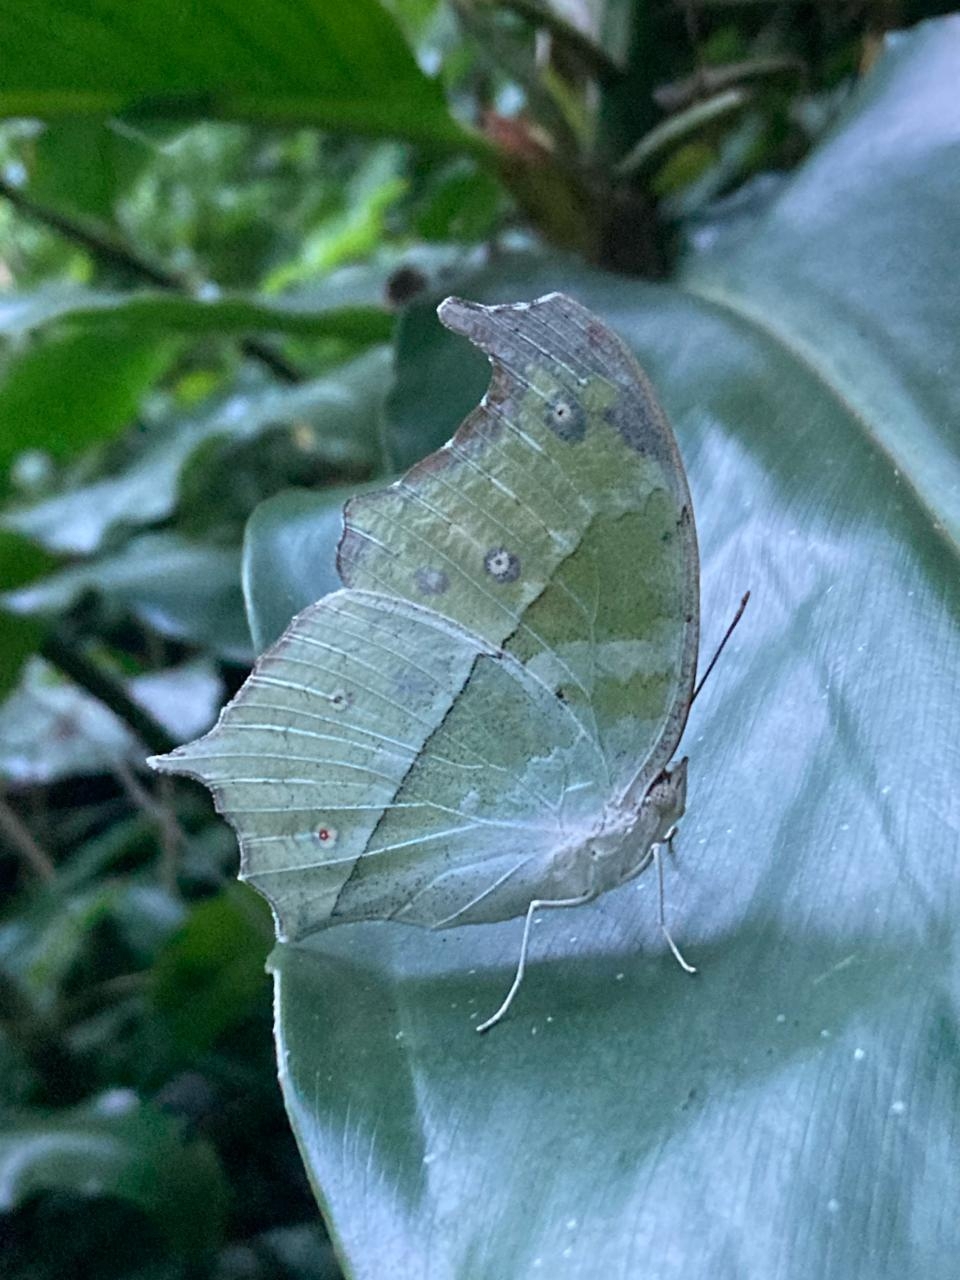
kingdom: Animalia
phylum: Arthropoda
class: Insecta
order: Lepidoptera
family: Nymphalidae
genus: Salamis
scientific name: Salamis Protogoniomorpha parhassus
